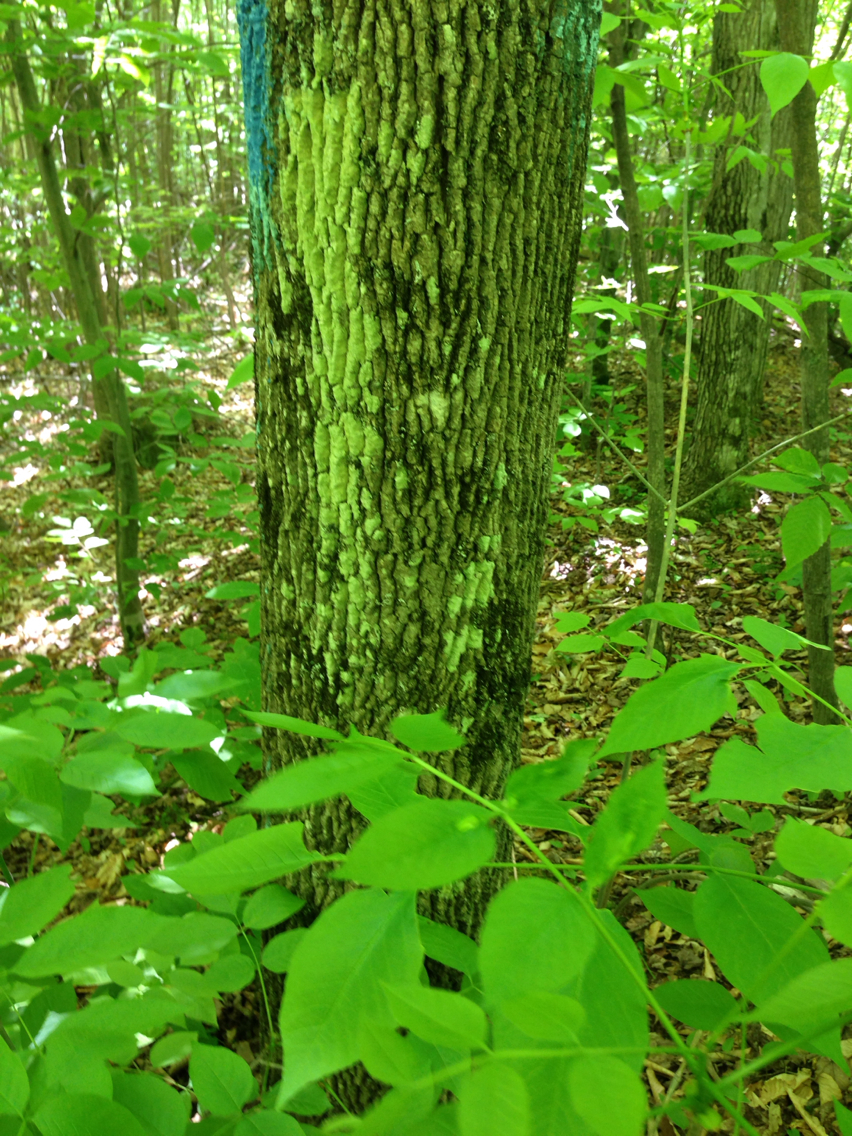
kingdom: Plantae
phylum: Tracheophyta
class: Magnoliopsida
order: Lamiales
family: Oleaceae
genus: Fraxinus
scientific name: Fraxinus americana
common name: White ash
